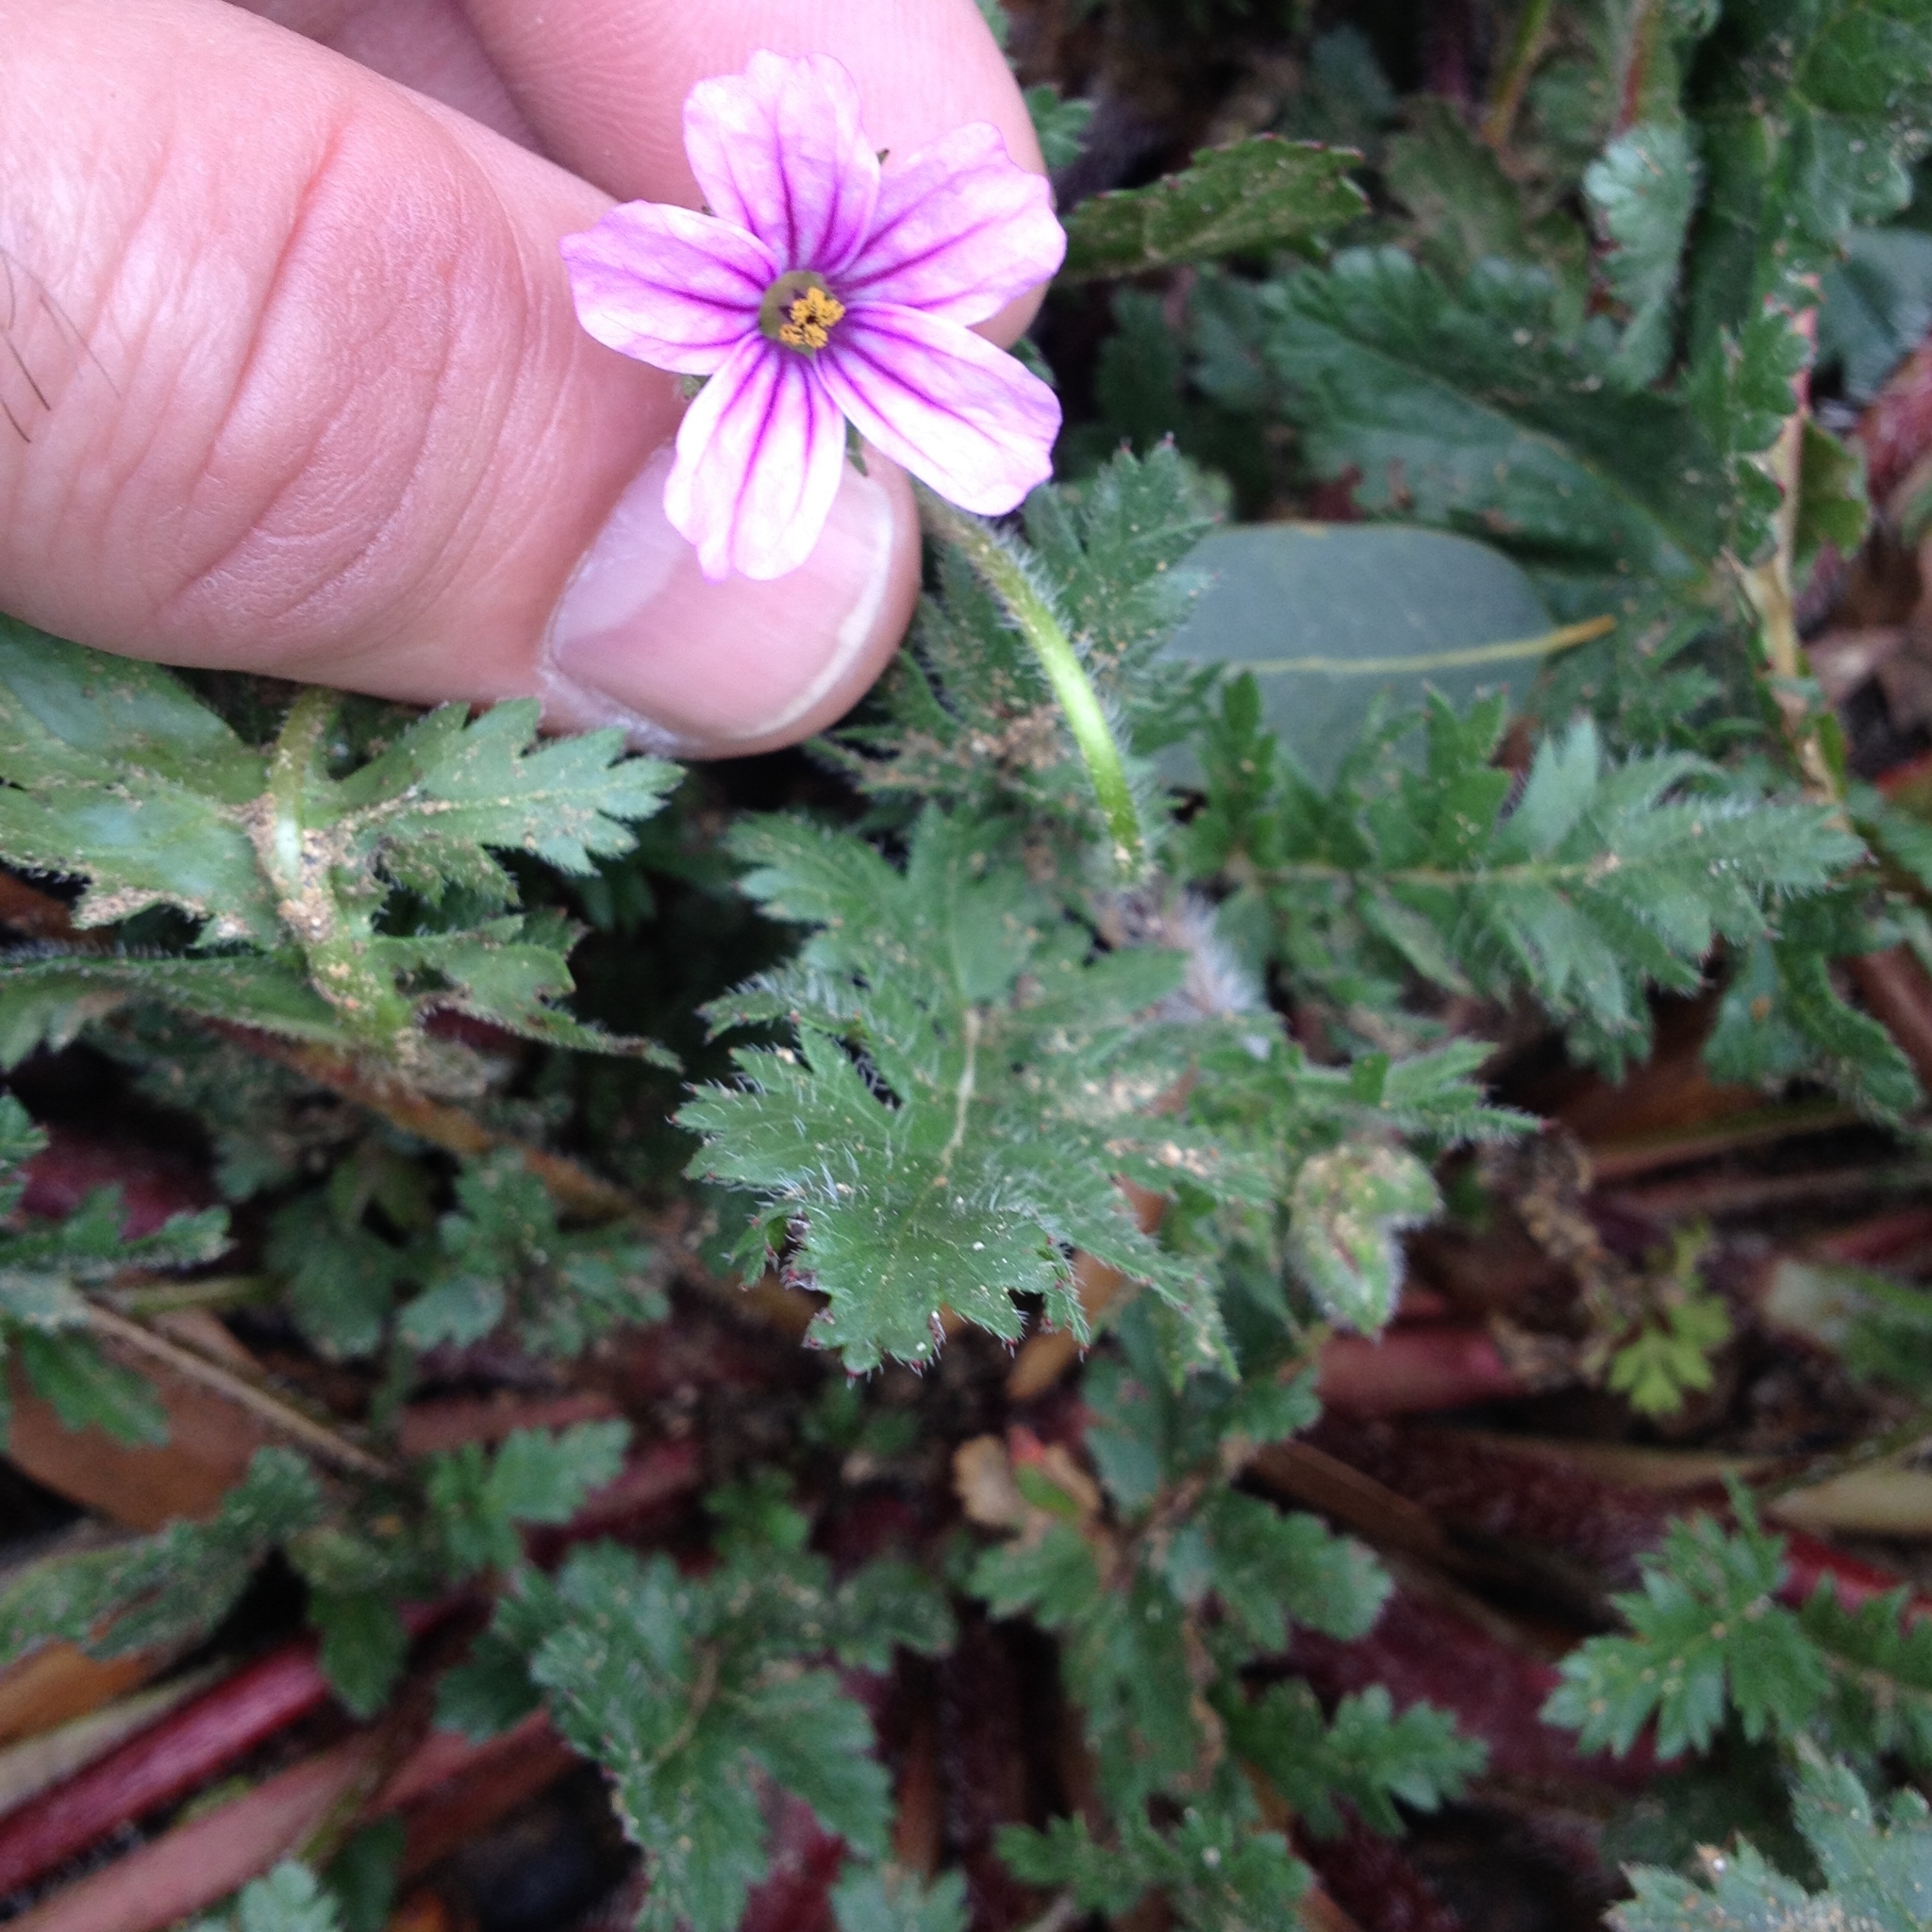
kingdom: Plantae
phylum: Tracheophyta
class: Magnoliopsida
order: Geraniales
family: Geraniaceae
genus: Erodium
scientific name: Erodium botrys
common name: Mediterranean stork's-bill
